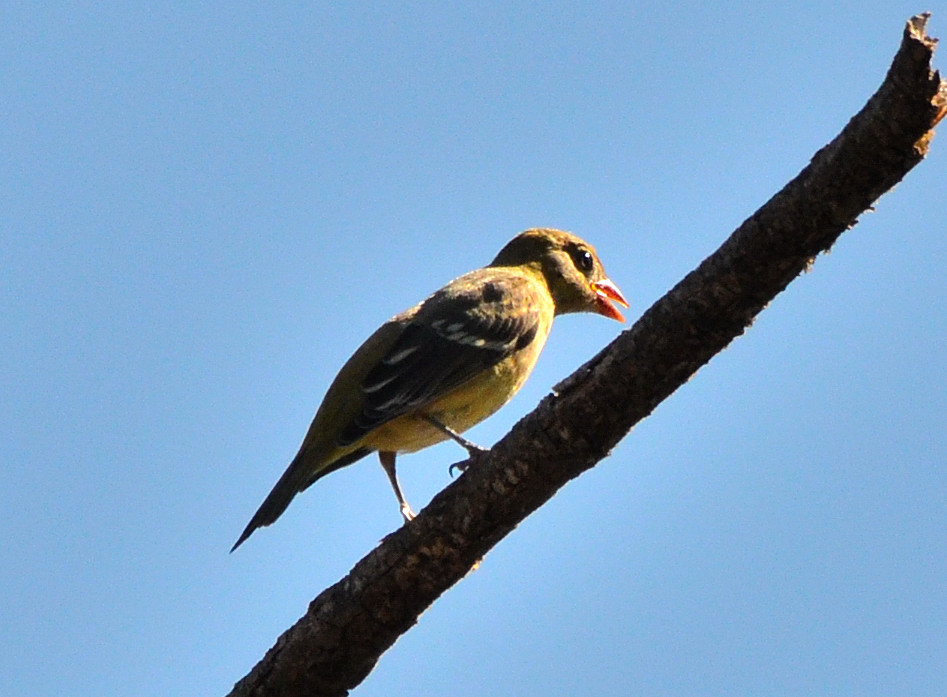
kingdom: Animalia
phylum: Chordata
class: Aves
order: Passeriformes
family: Cardinalidae
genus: Piranga
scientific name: Piranga ludoviciana
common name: Western tanager
